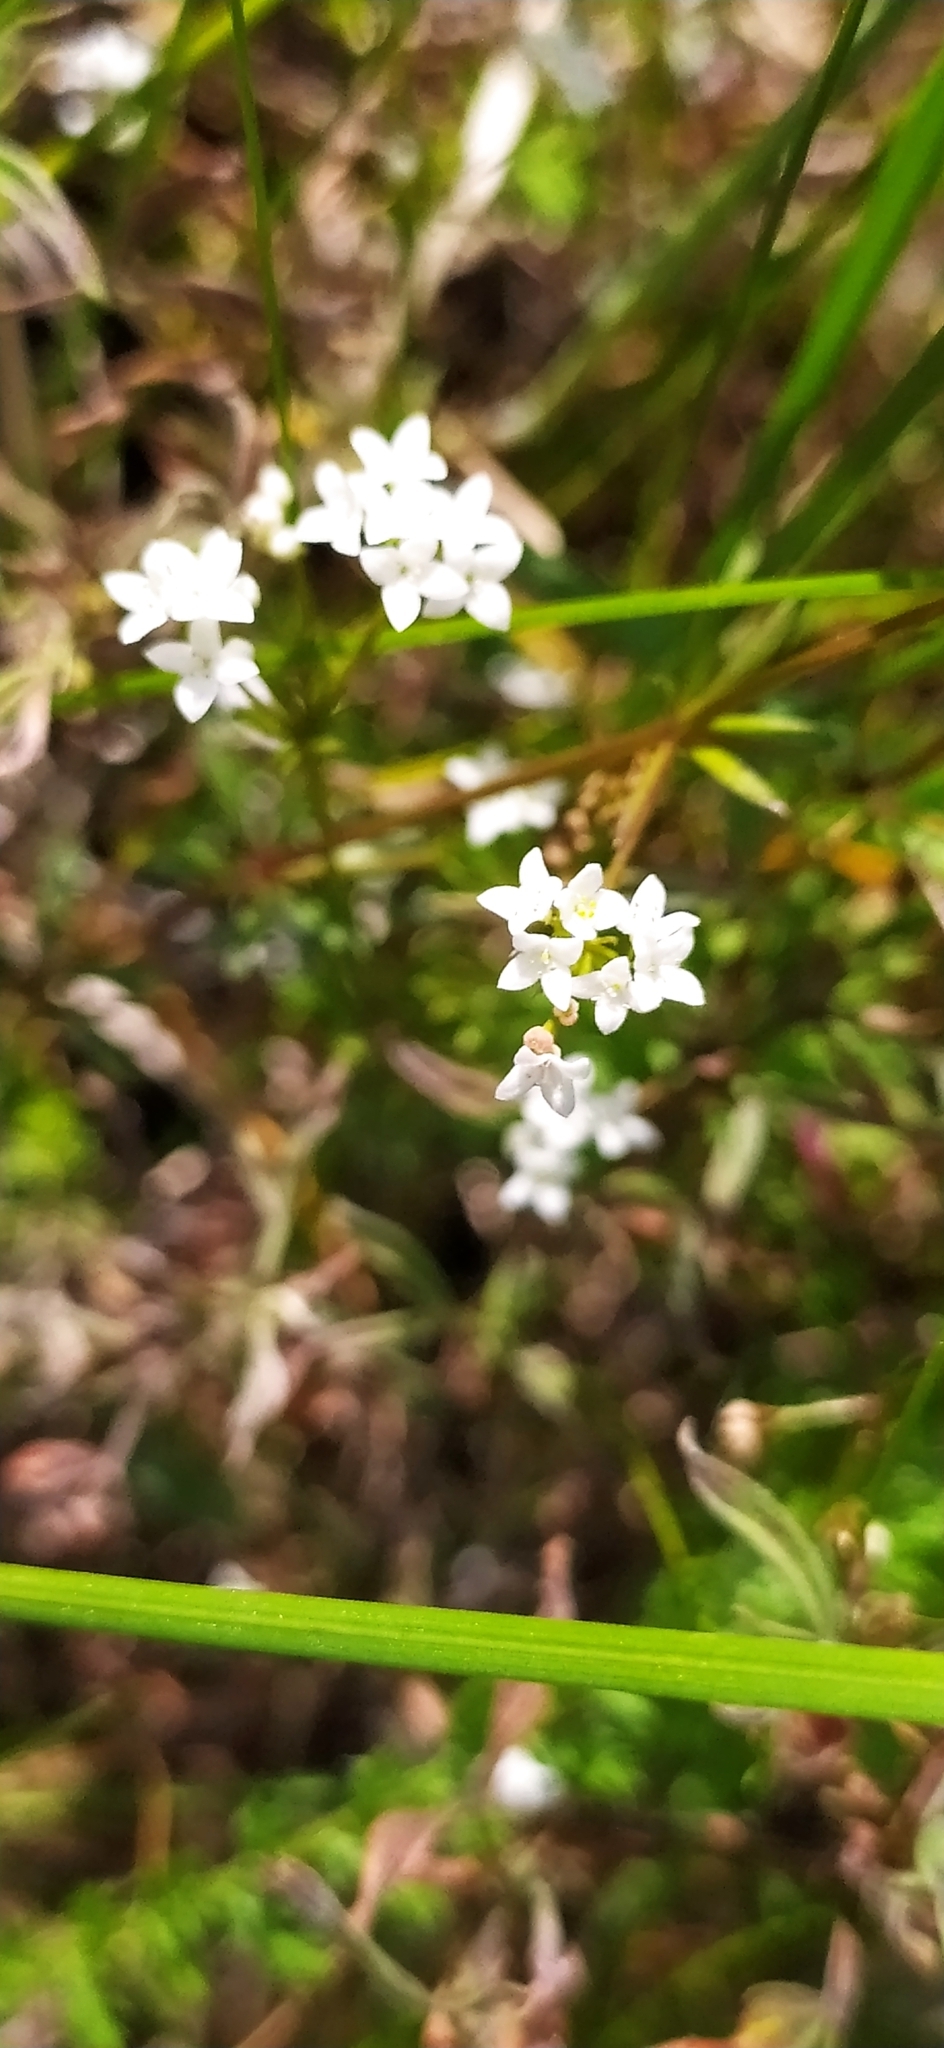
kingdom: Plantae
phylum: Tracheophyta
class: Magnoliopsida
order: Gentianales
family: Rubiaceae
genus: Galium
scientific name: Galium uliginosum
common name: Fen bedstraw
